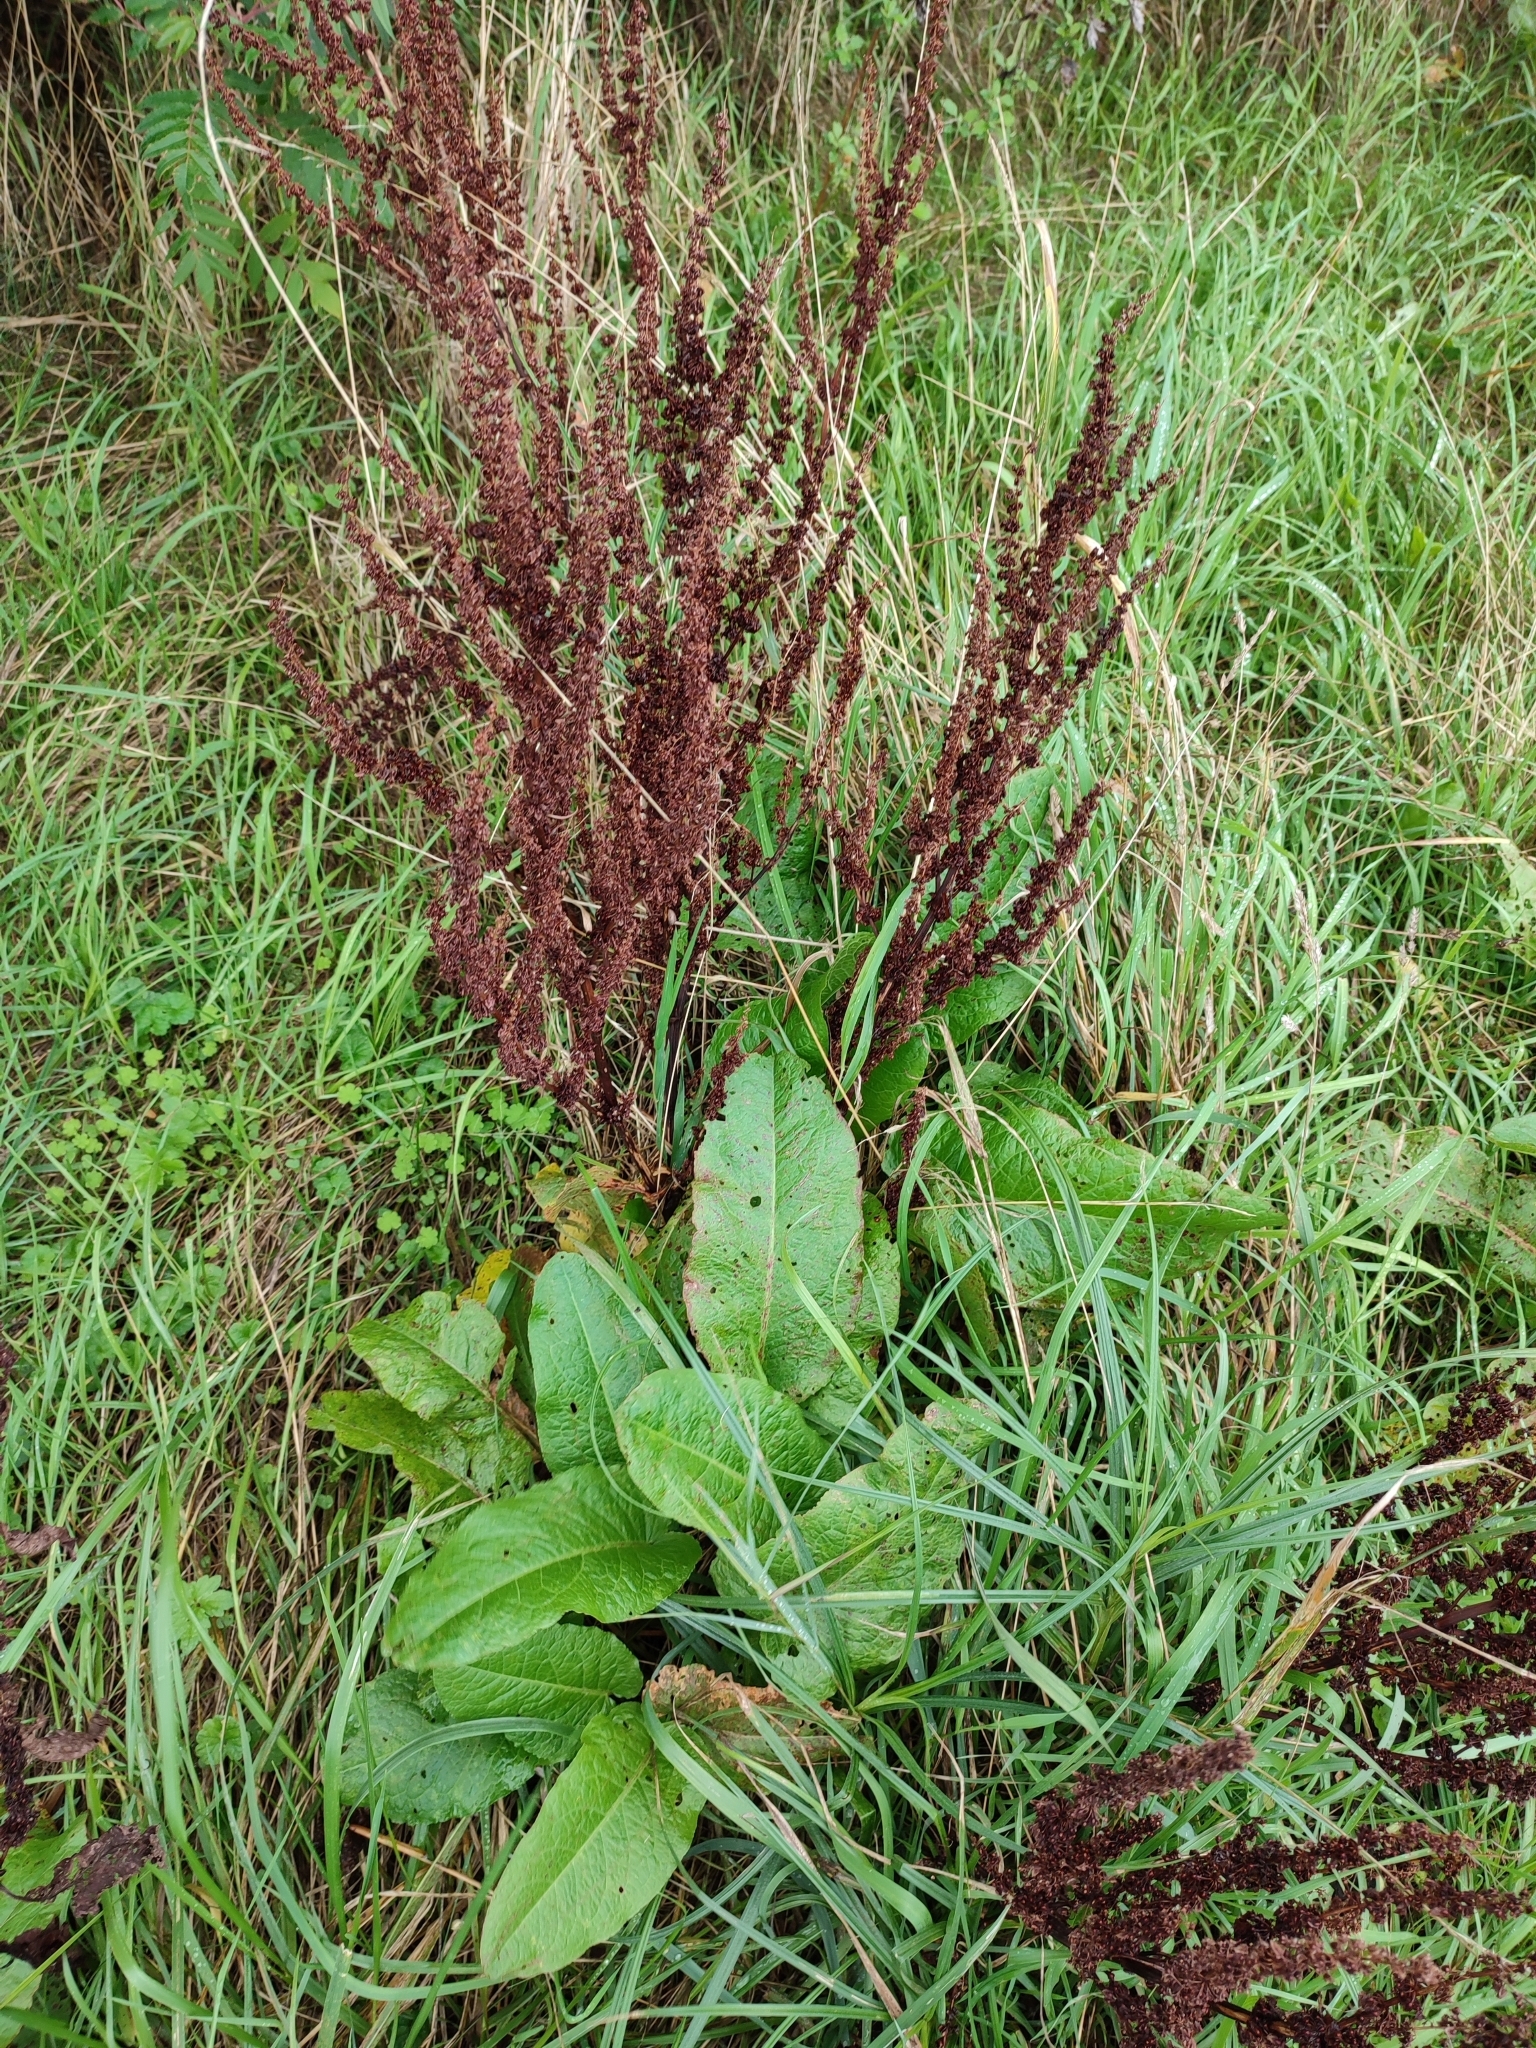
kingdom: Plantae
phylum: Tracheophyta
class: Magnoliopsida
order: Caryophyllales
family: Polygonaceae
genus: Rumex
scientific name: Rumex obtusifolius
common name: Bitter dock
